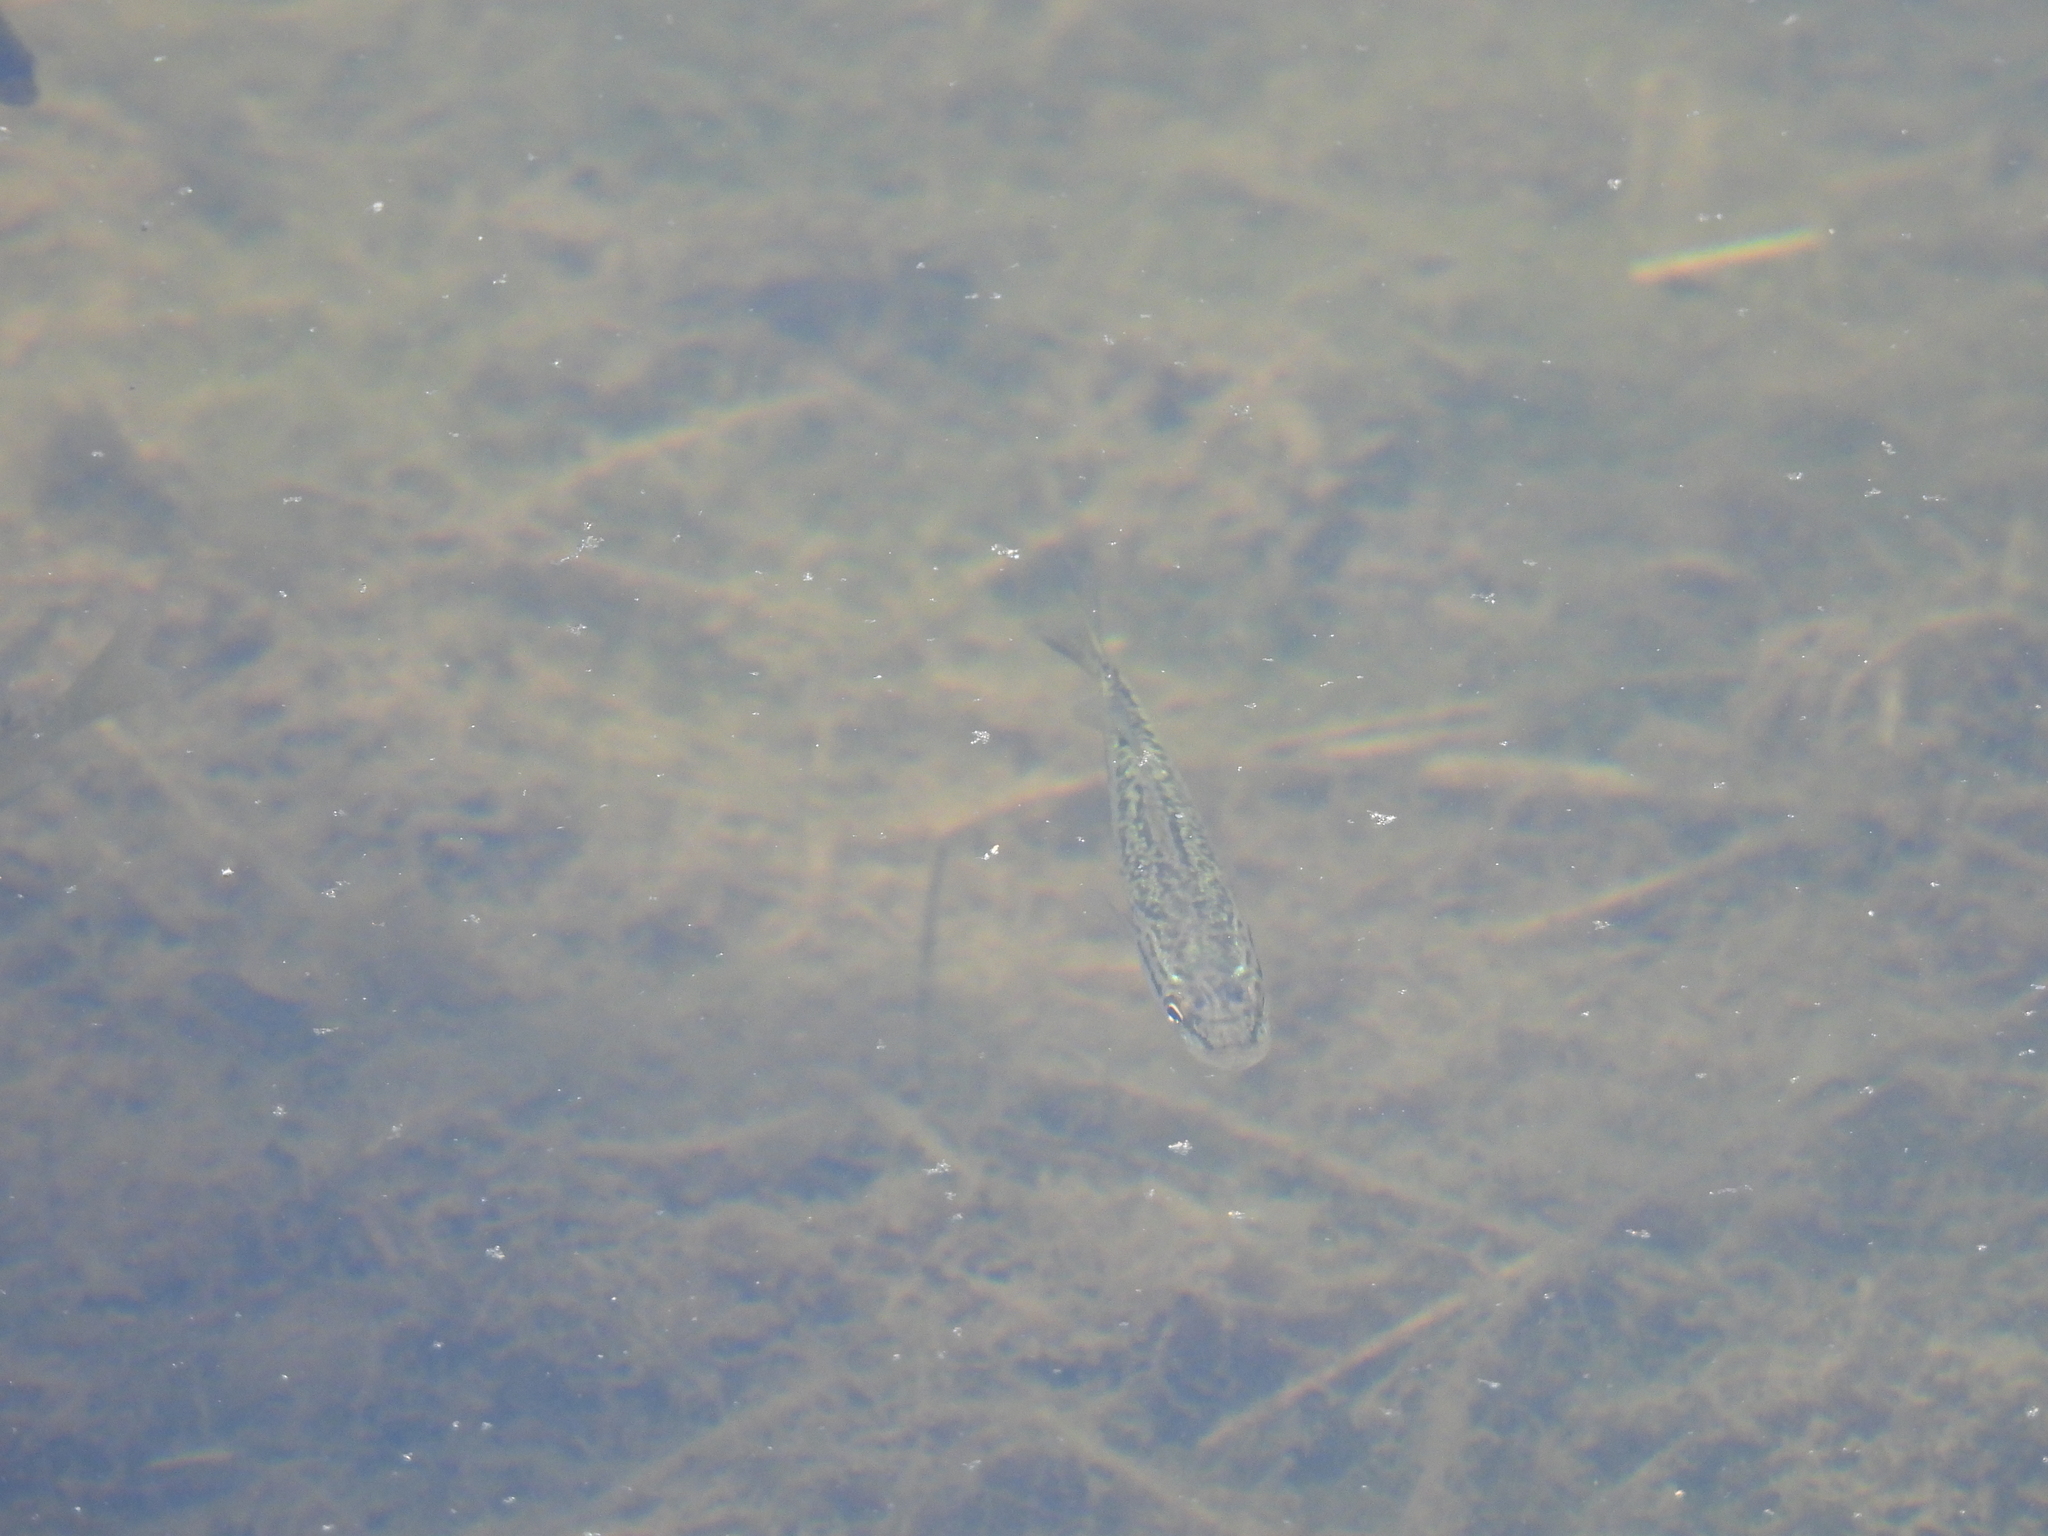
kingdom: Animalia
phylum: Chordata
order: Perciformes
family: Centrarchidae
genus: Micropterus
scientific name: Micropterus
